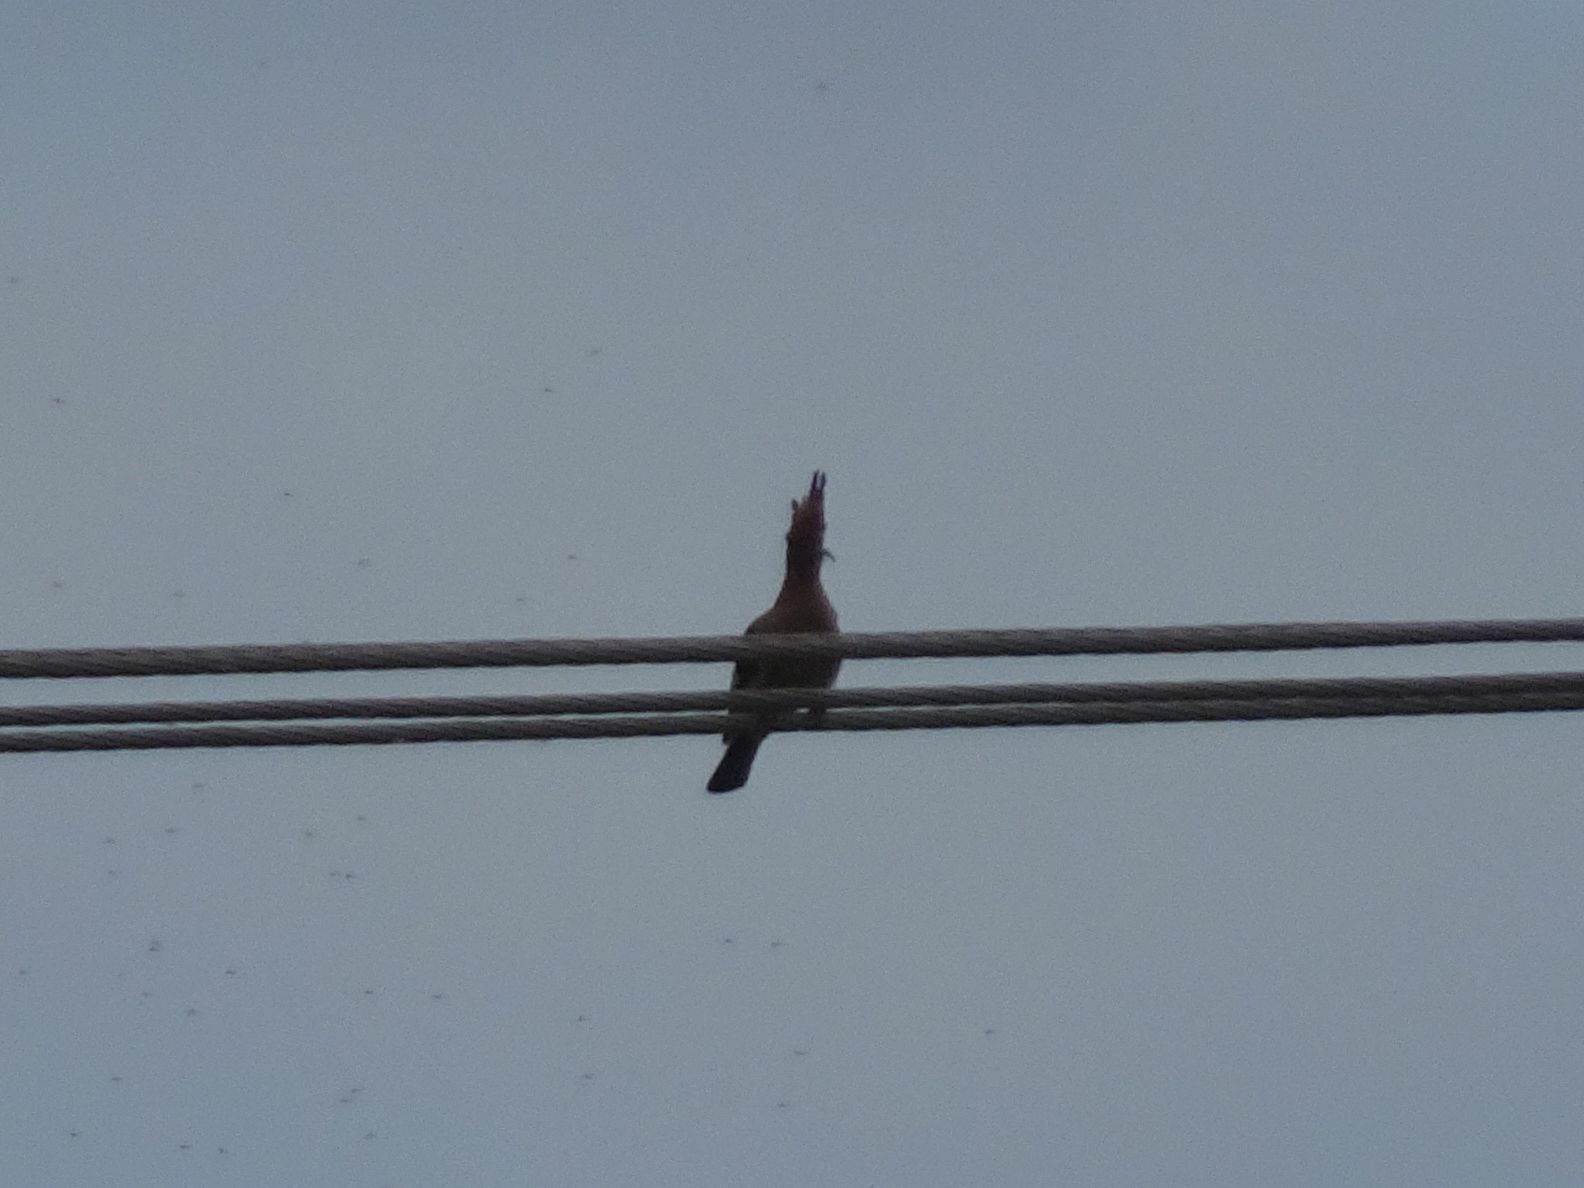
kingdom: Animalia
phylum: Chordata
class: Aves
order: Bucerotiformes
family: Upupidae
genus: Upupa
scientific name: Upupa africana
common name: African hoopoe
